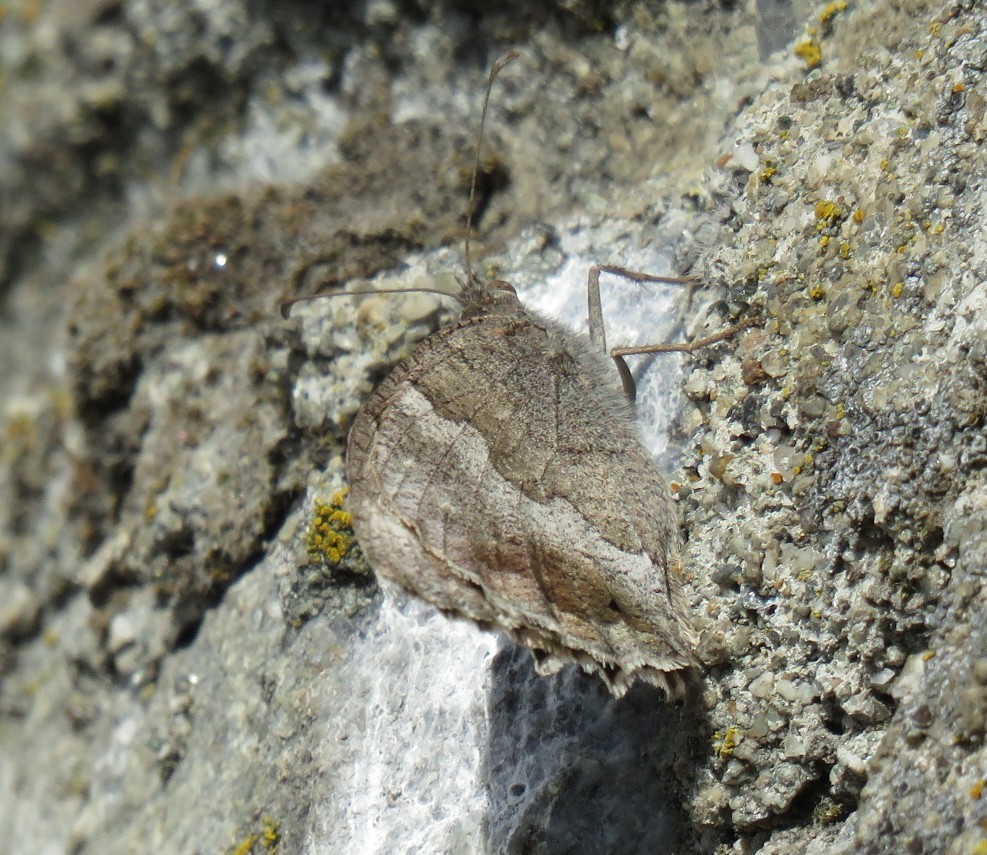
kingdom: Animalia
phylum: Arthropoda
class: Insecta
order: Lepidoptera
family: Nymphalidae
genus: Hipparchia
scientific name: Hipparchia statilinus
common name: Tree grayling
